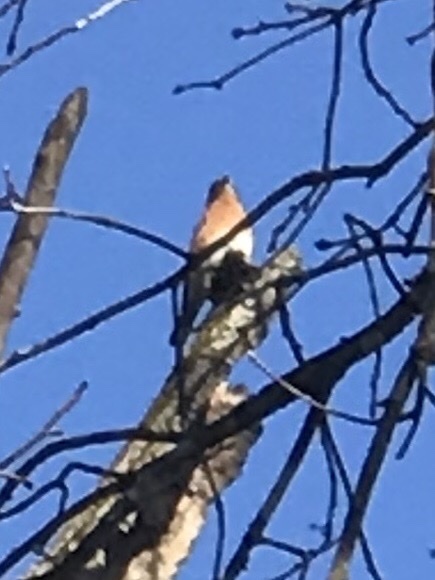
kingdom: Animalia
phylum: Chordata
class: Aves
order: Passeriformes
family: Turdidae
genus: Sialia
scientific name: Sialia sialis
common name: Eastern bluebird
